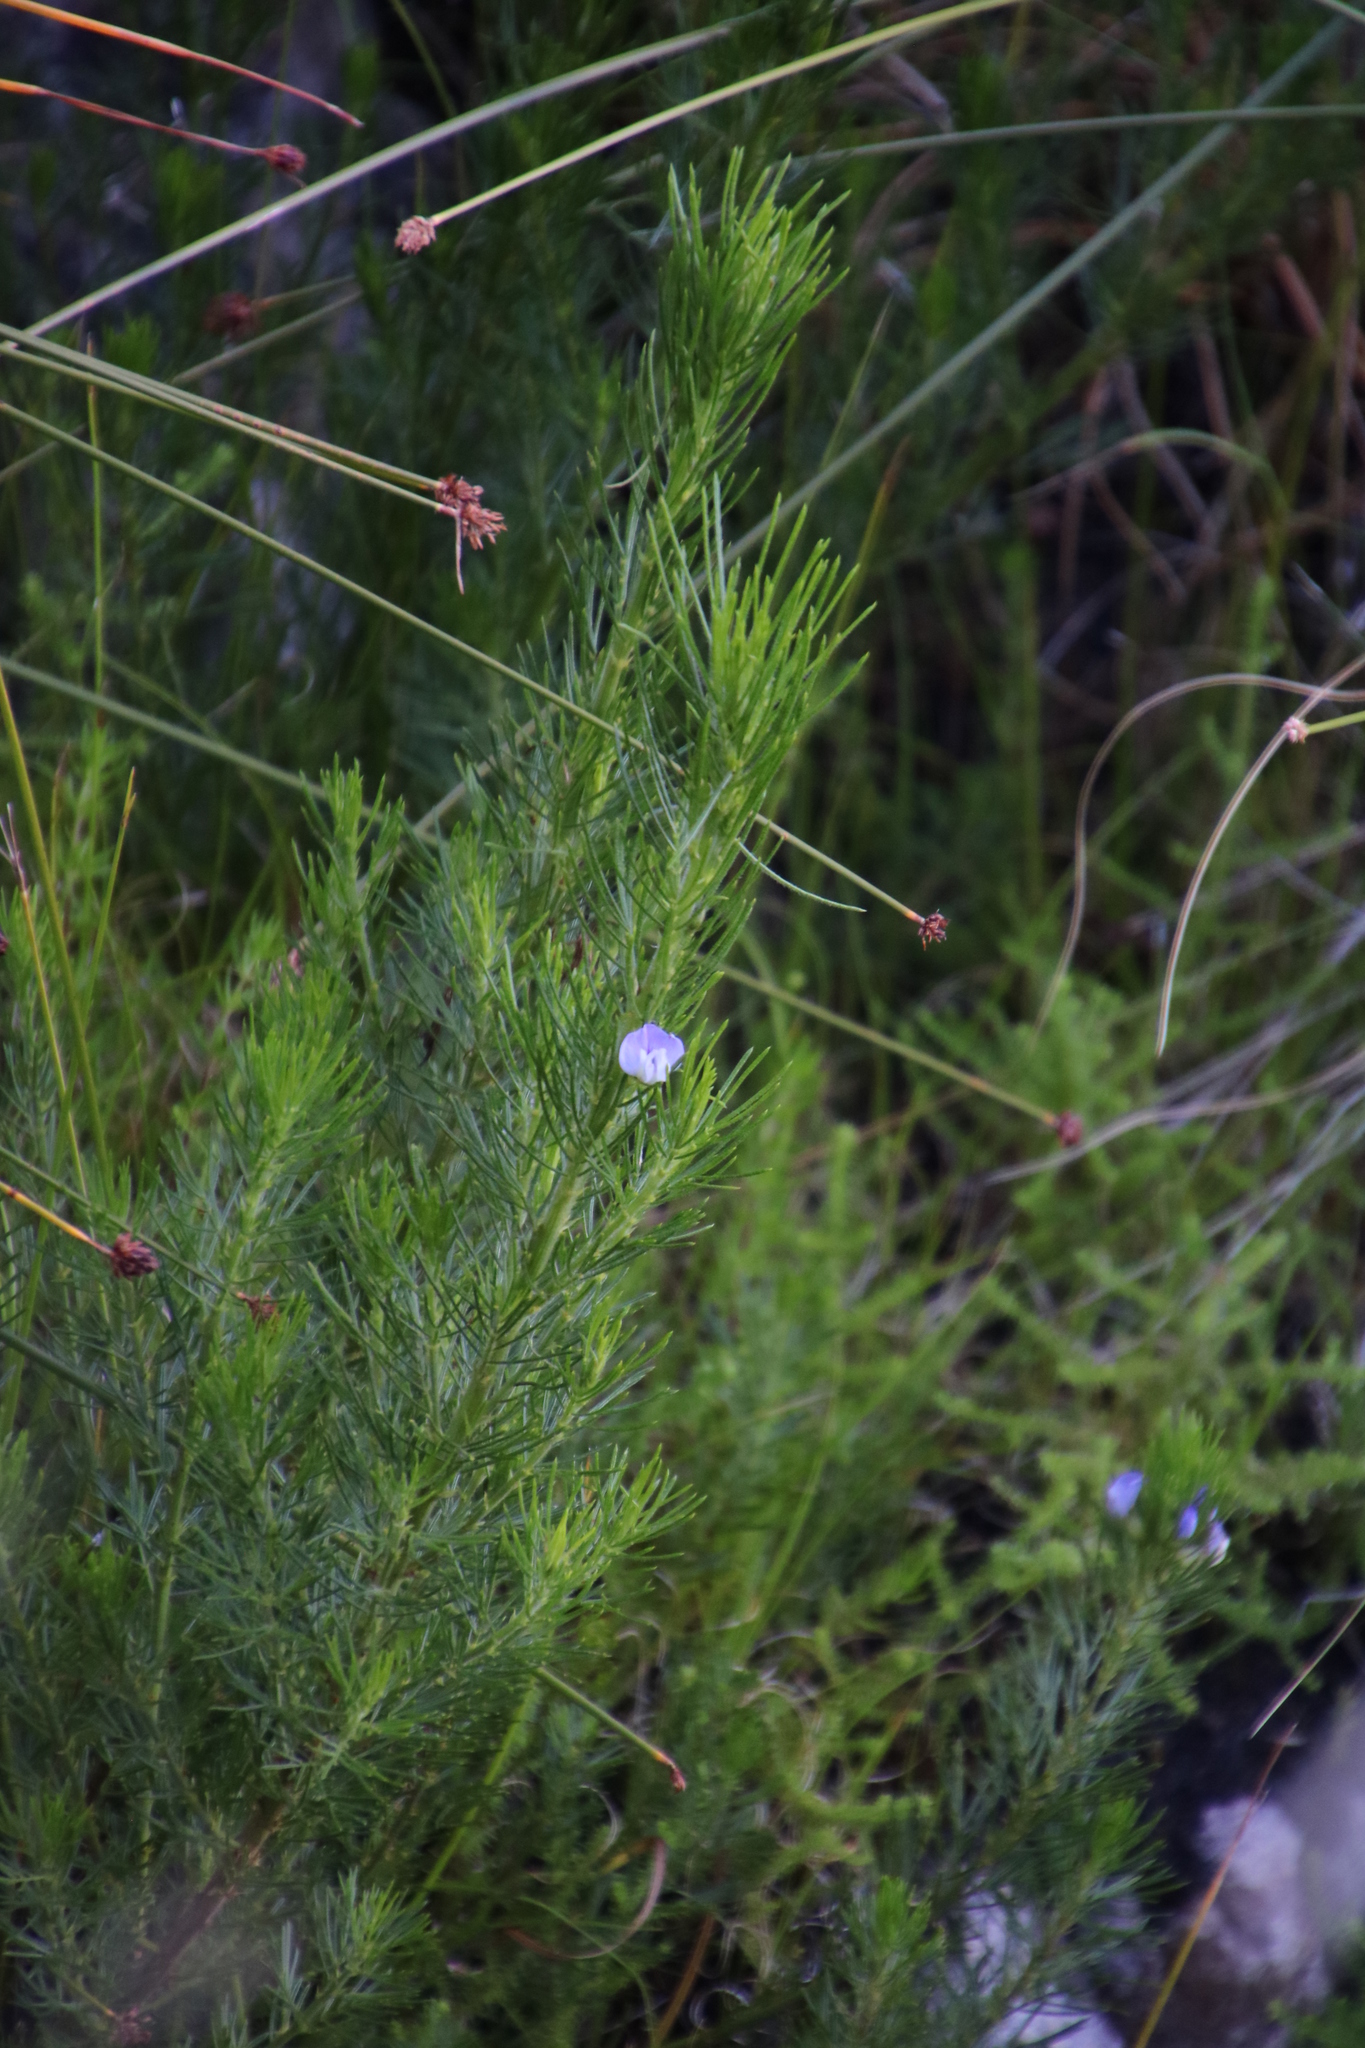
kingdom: Plantae
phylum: Tracheophyta
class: Magnoliopsida
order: Fabales
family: Fabaceae
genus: Psoralea
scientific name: Psoralea pinnata
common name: African scurfpea
